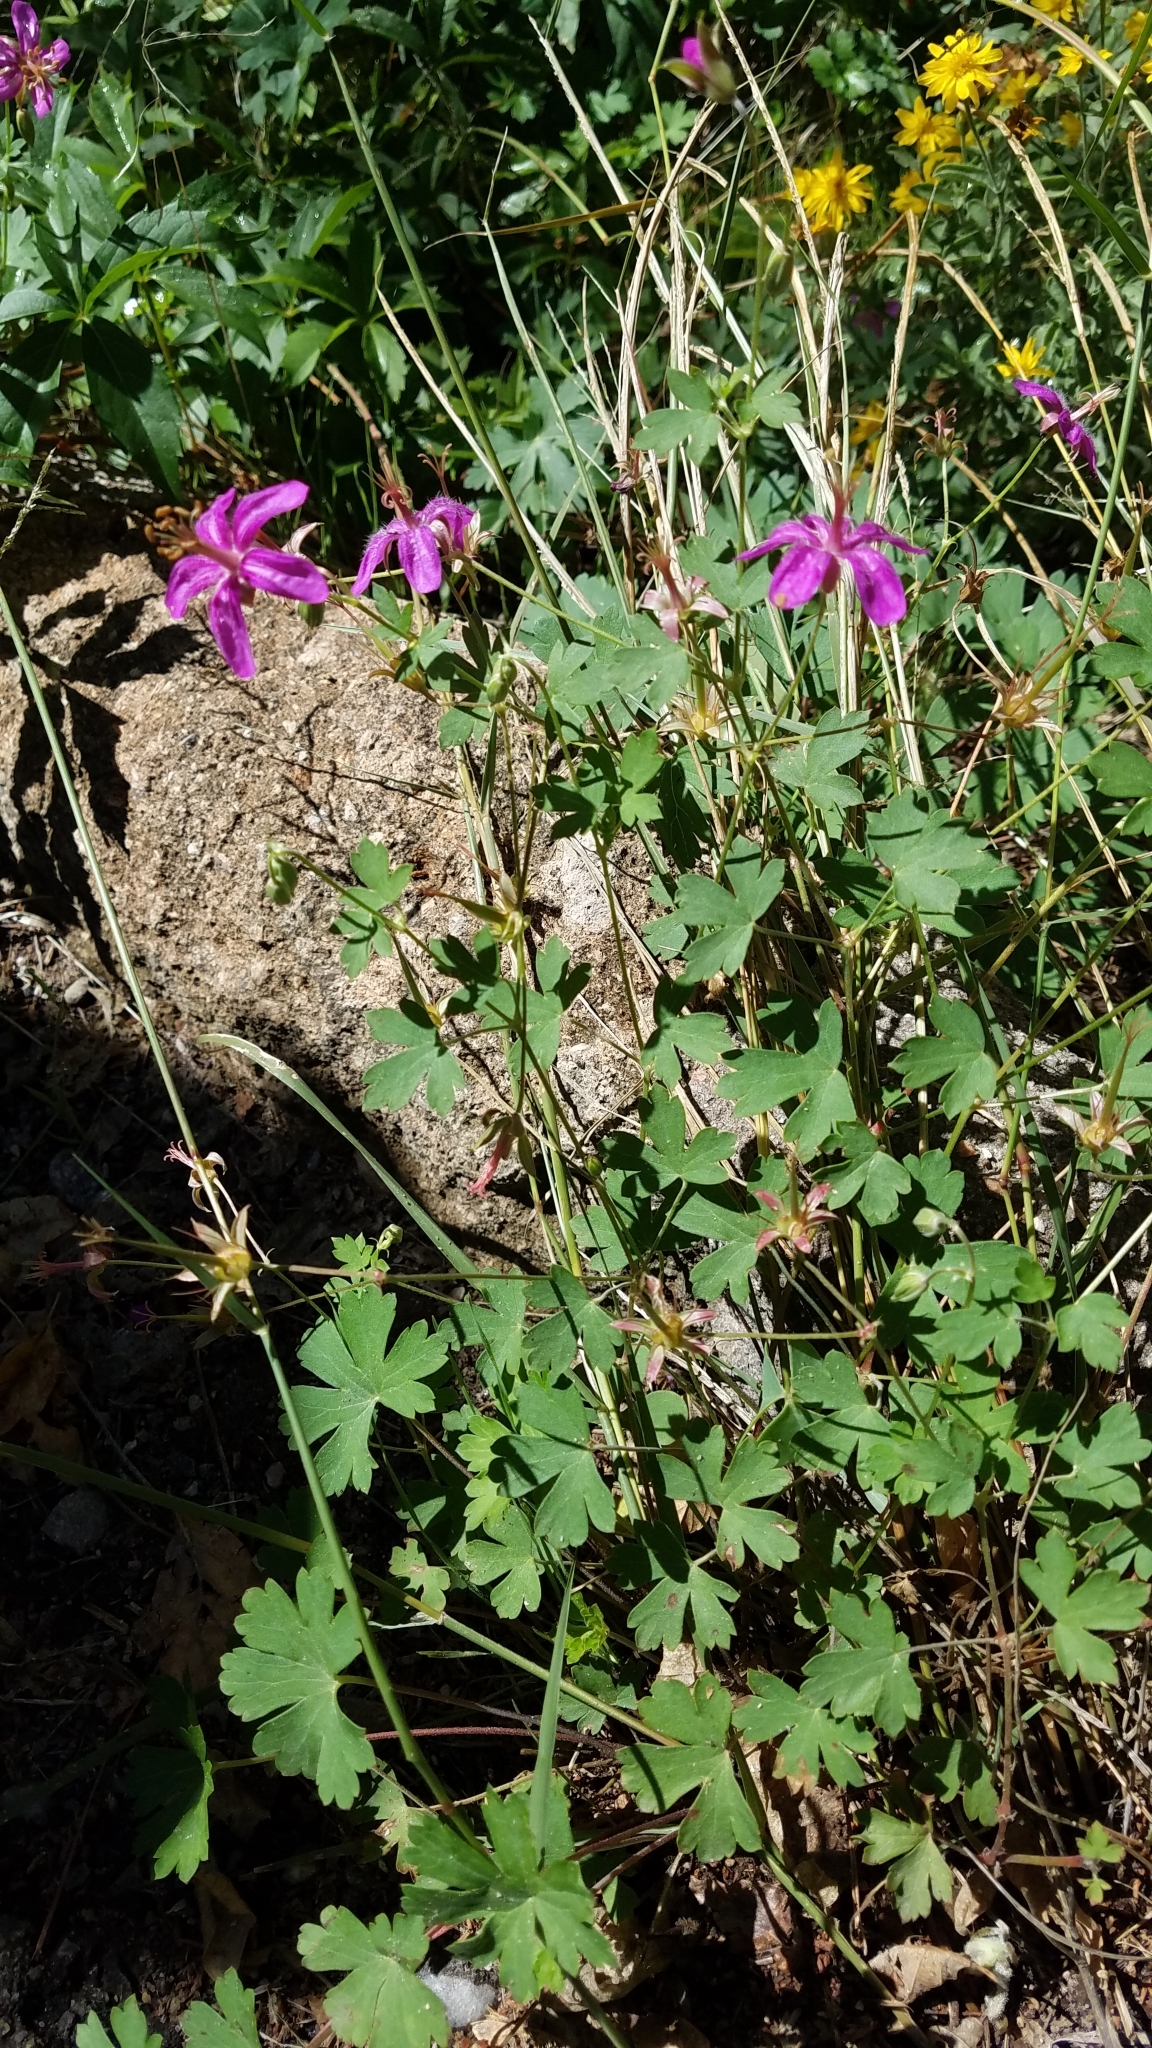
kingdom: Plantae
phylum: Tracheophyta
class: Magnoliopsida
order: Geraniales
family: Geraniaceae
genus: Geranium
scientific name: Geranium caespitosum
